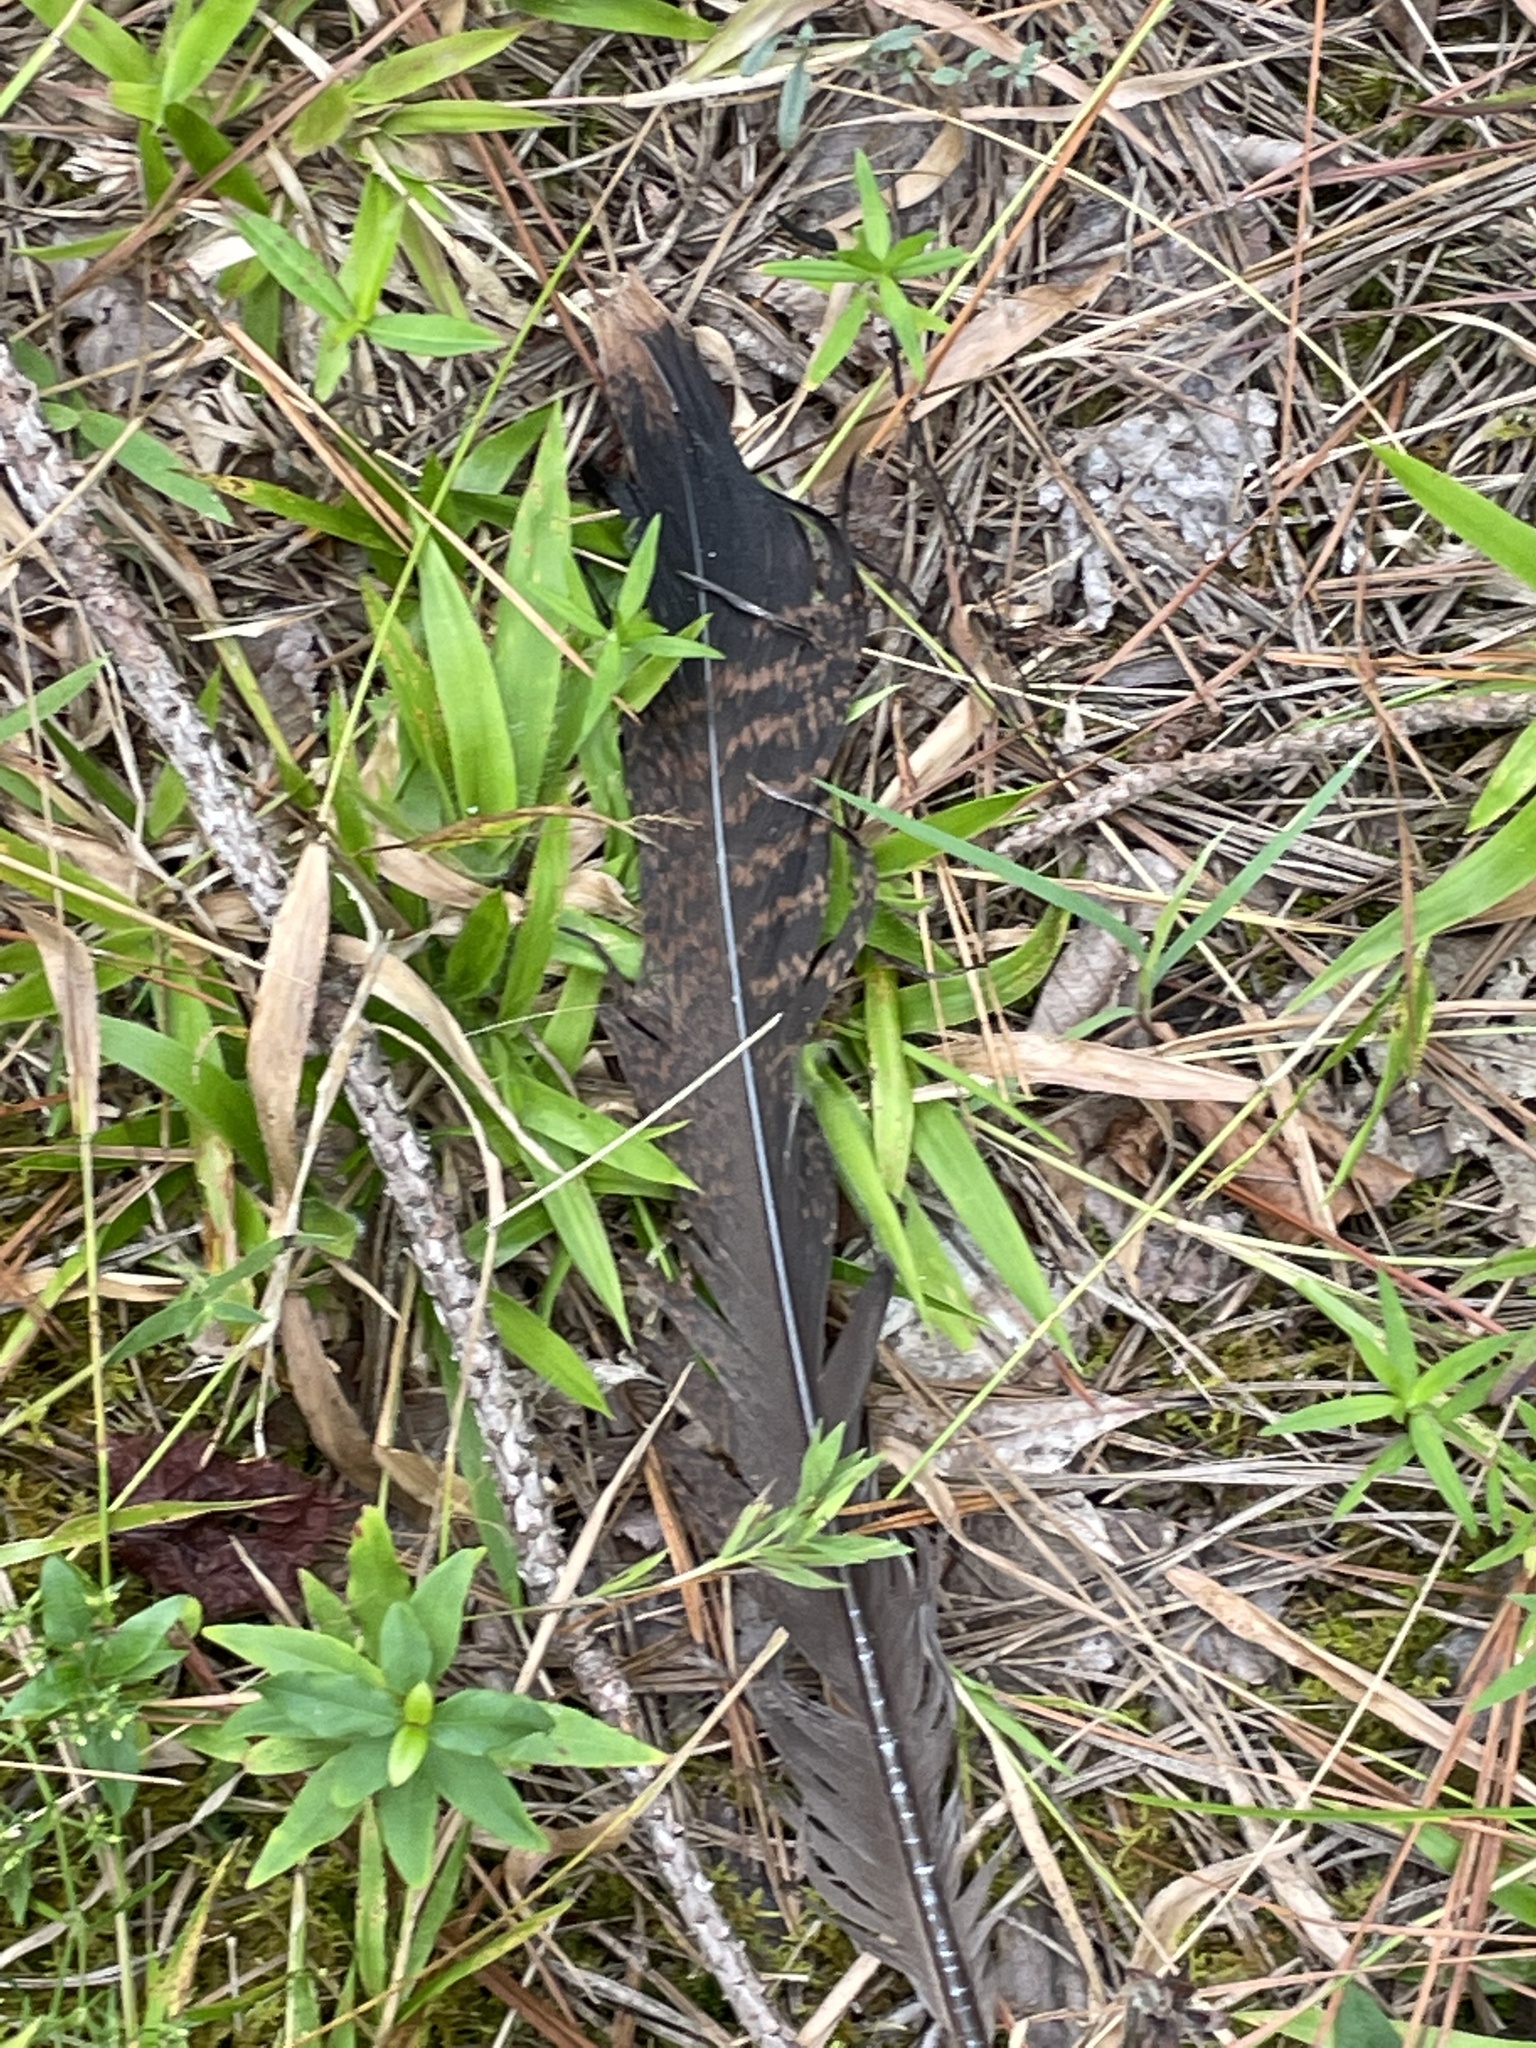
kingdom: Animalia
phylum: Chordata
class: Aves
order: Galliformes
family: Phasianidae
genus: Meleagris
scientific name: Meleagris gallopavo
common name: Wild turkey
